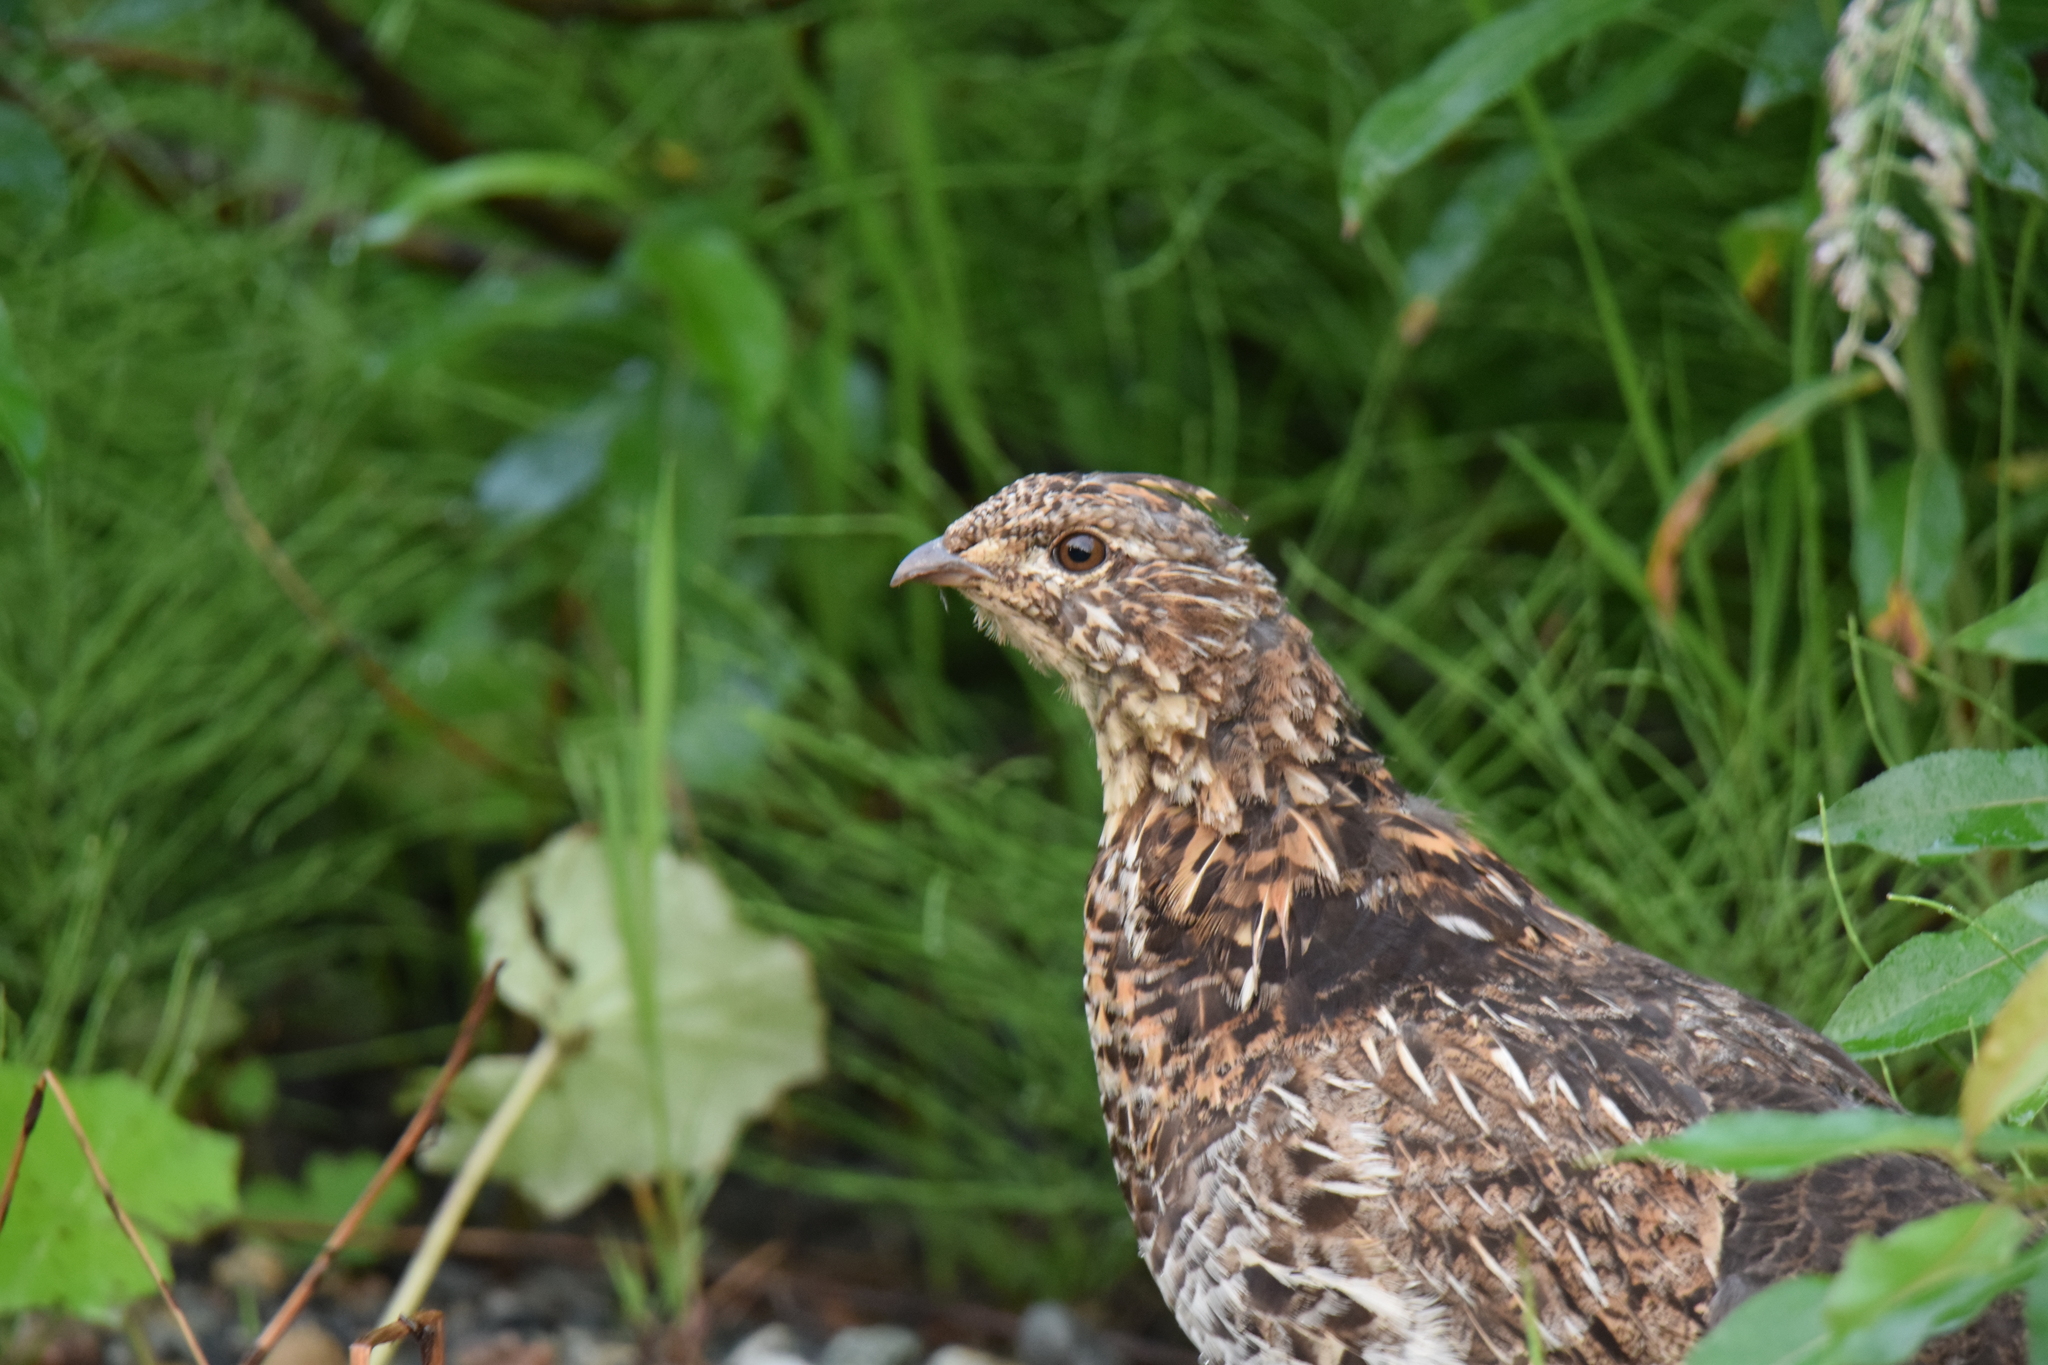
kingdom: Animalia
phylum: Chordata
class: Aves
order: Galliformes
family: Phasianidae
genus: Bonasa
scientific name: Bonasa umbellus
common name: Ruffed grouse
